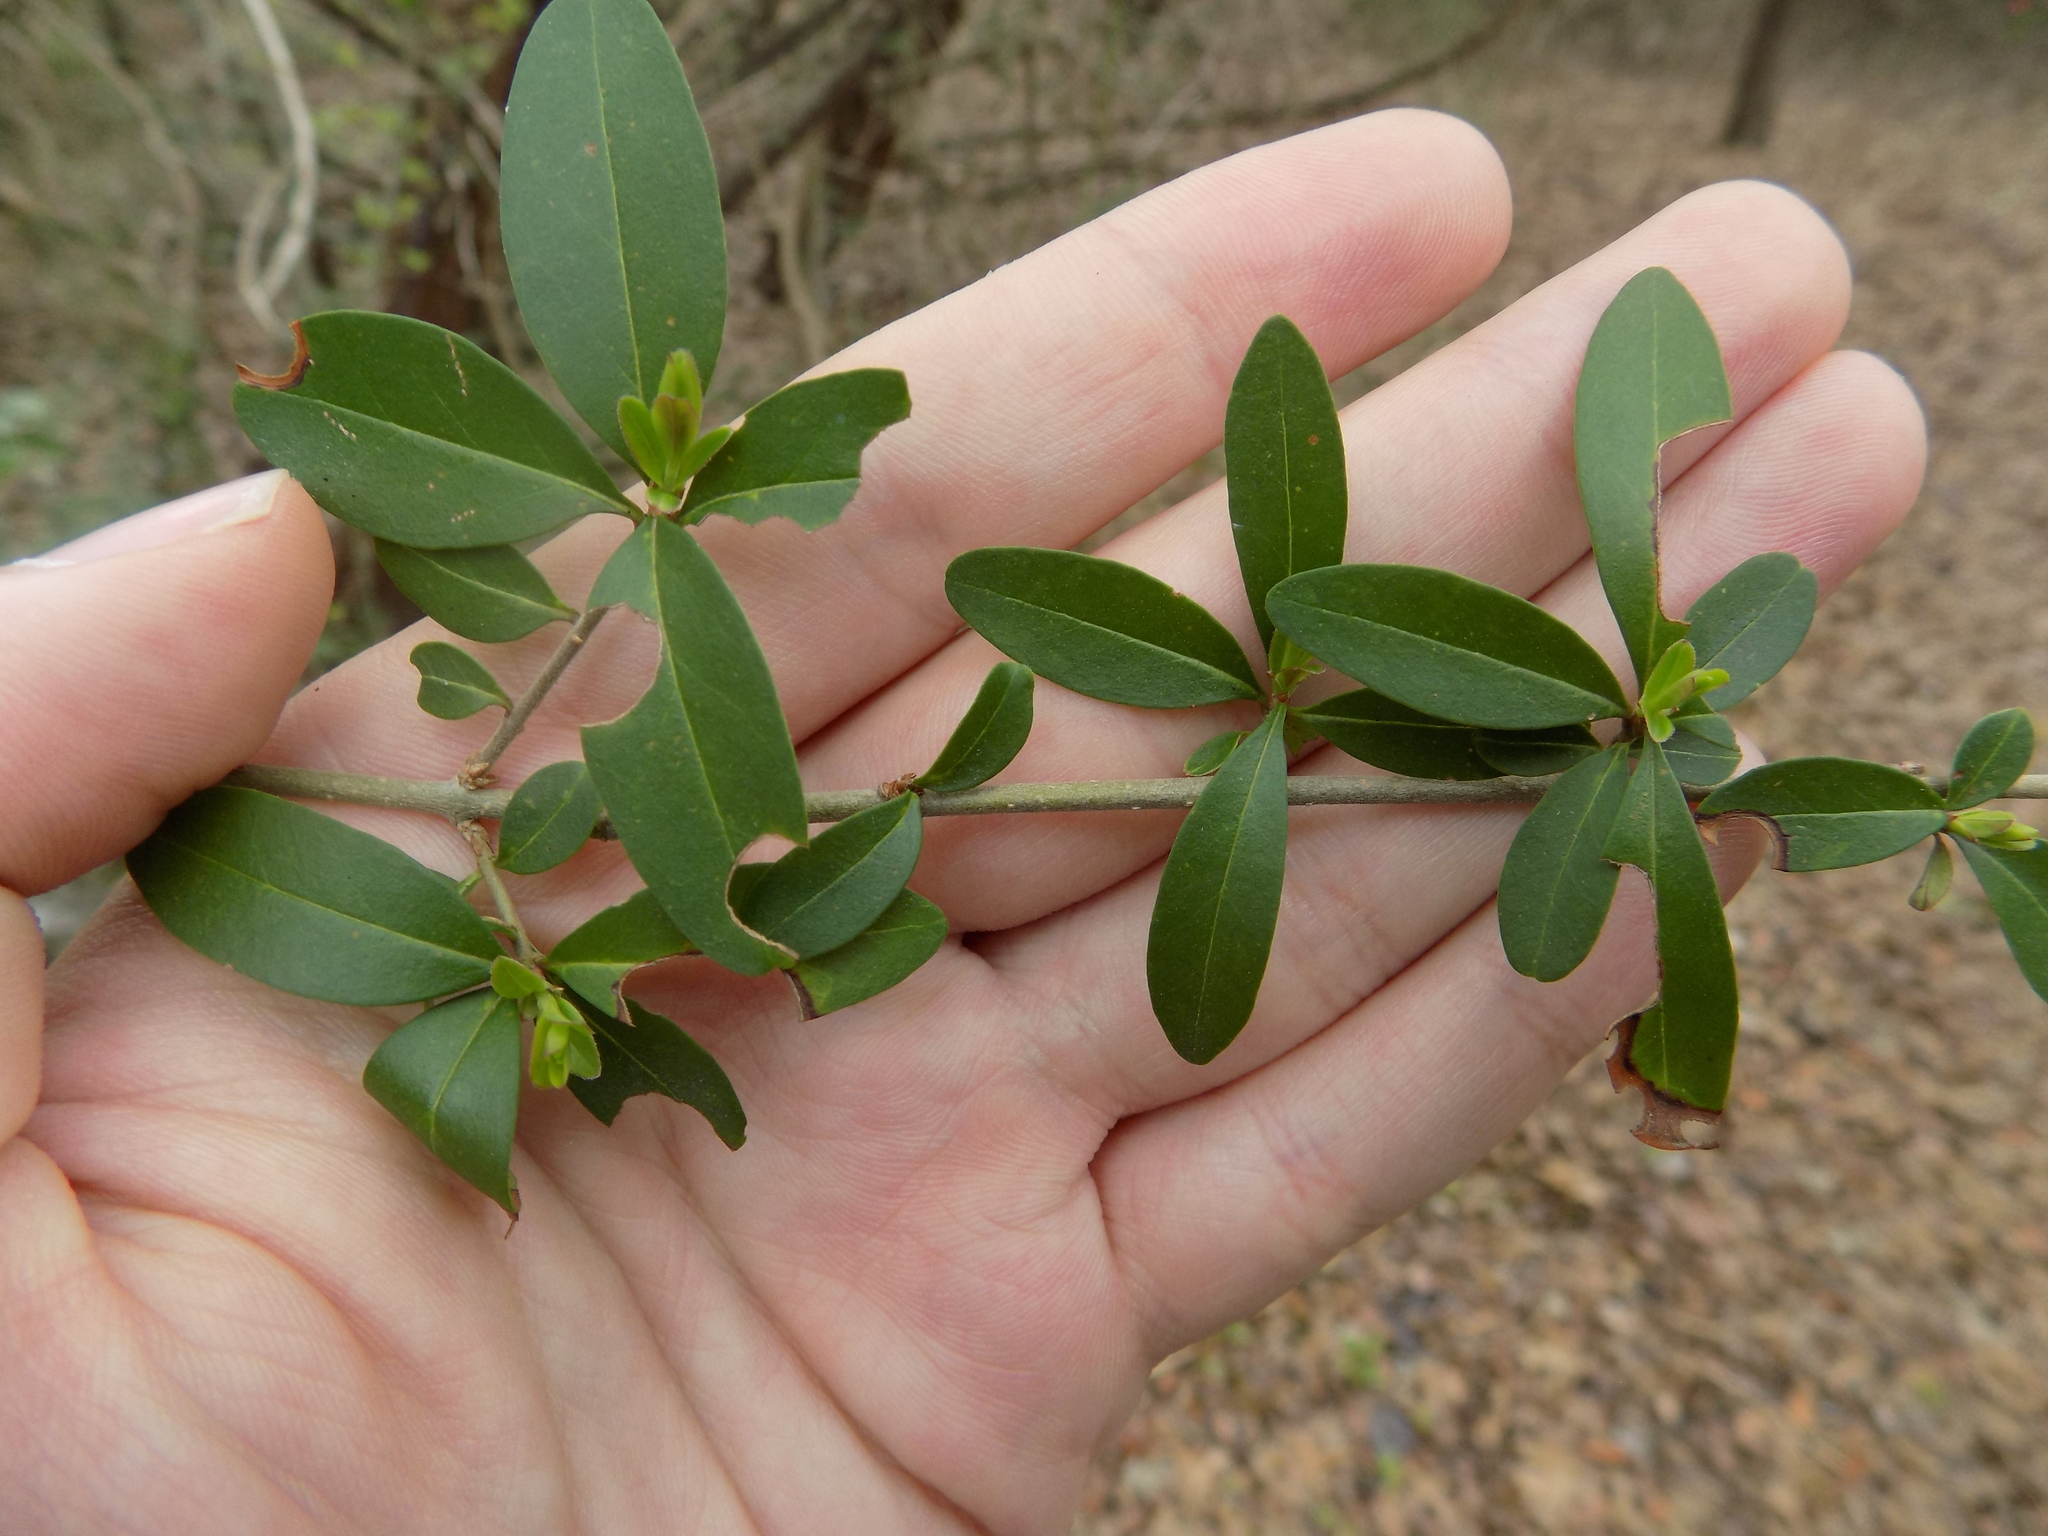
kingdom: Plantae
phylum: Tracheophyta
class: Magnoliopsida
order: Lamiales
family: Oleaceae
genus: Ligustrum
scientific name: Ligustrum quihoui
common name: Waxyleaf privet
